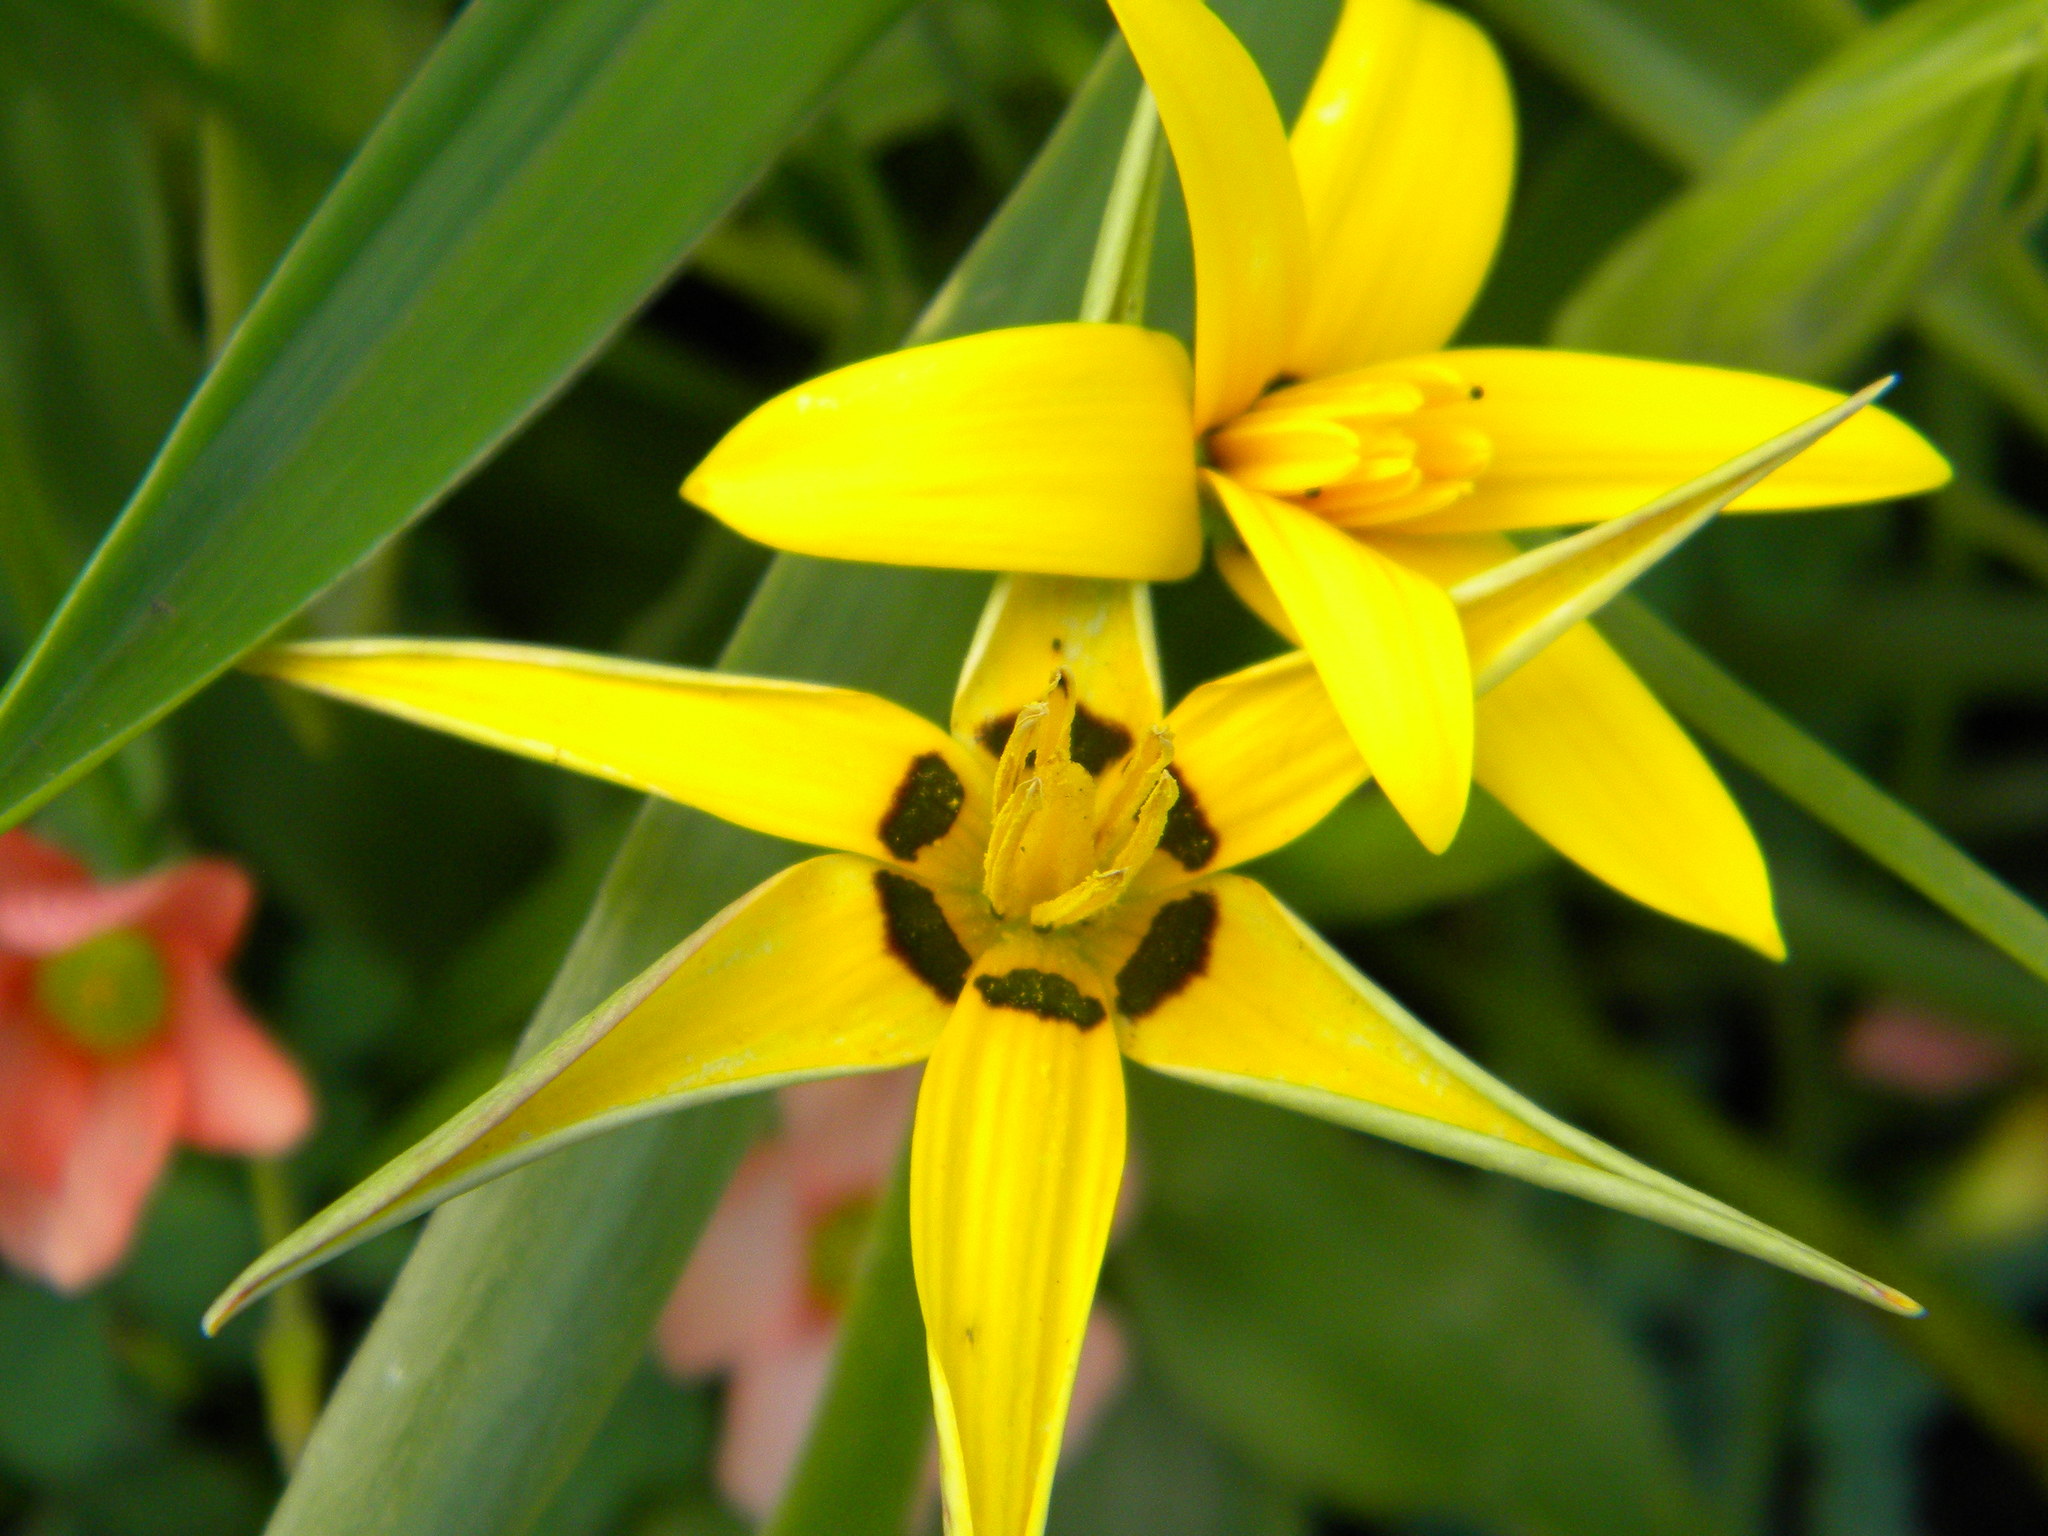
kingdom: Plantae
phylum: Tracheophyta
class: Liliopsida
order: Asparagales
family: Hypoxidaceae
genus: Pauridia
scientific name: Pauridia capensis
